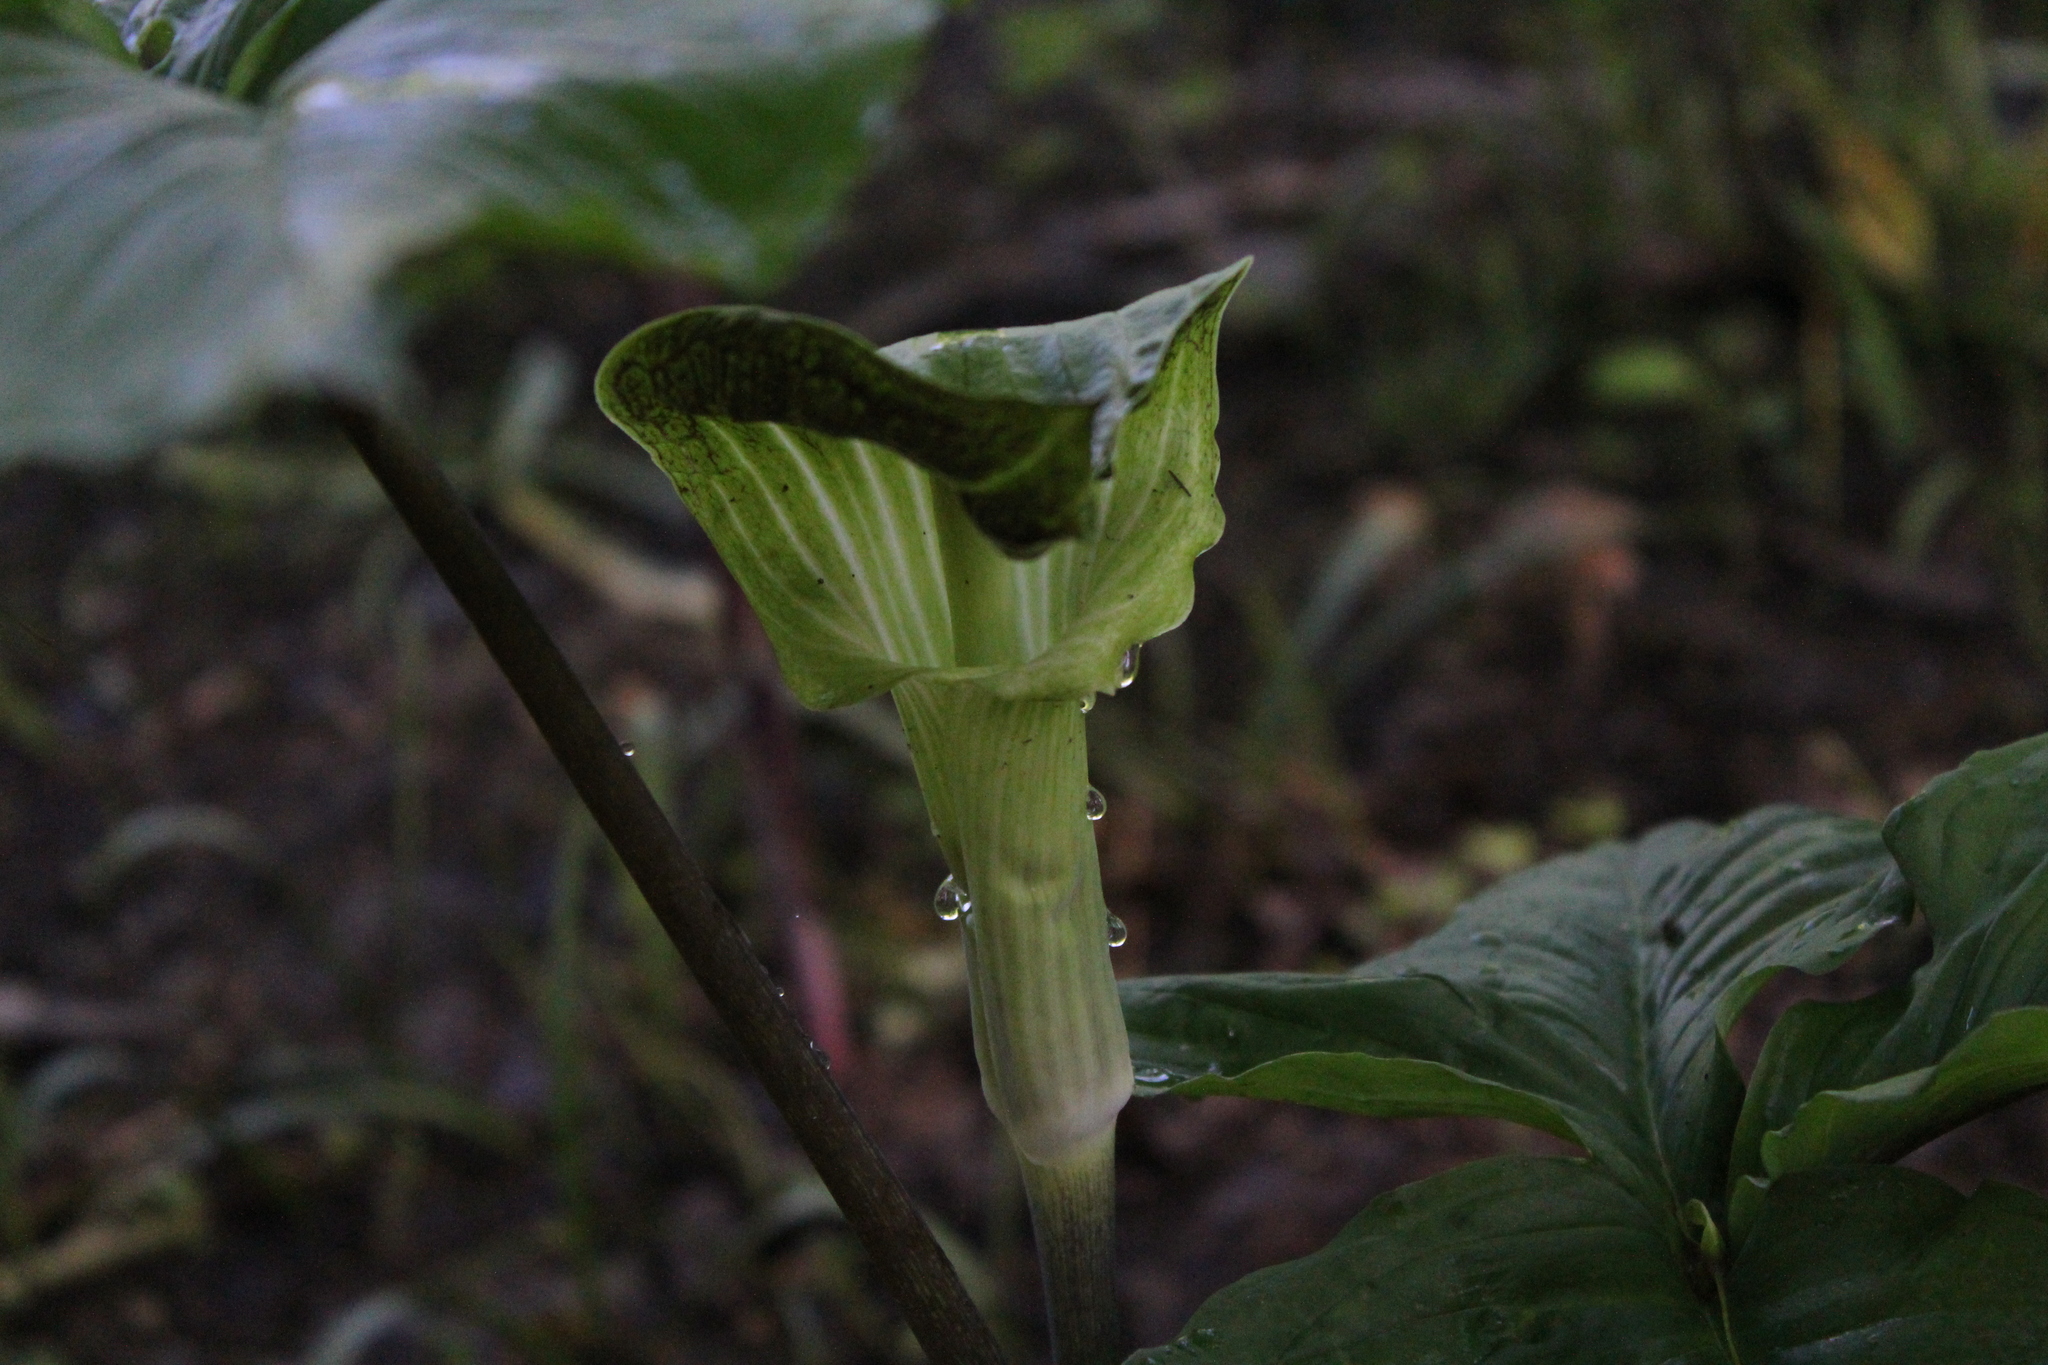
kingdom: Plantae
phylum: Tracheophyta
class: Liliopsida
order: Alismatales
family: Araceae
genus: Arisaema
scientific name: Arisaema triphyllum
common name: Jack-in-the-pulpit
